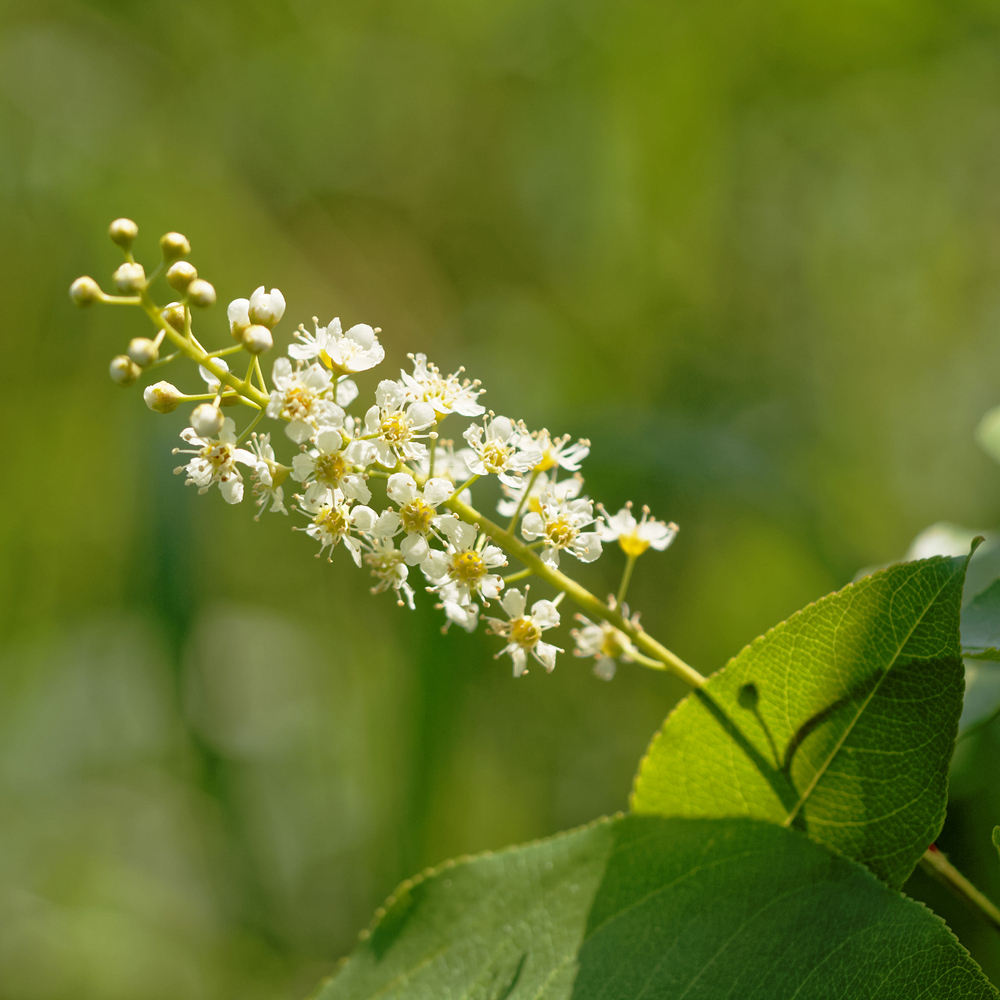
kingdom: Plantae
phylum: Tracheophyta
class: Magnoliopsida
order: Rosales
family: Rosaceae
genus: Prunus
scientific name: Prunus serotina
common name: Black cherry
